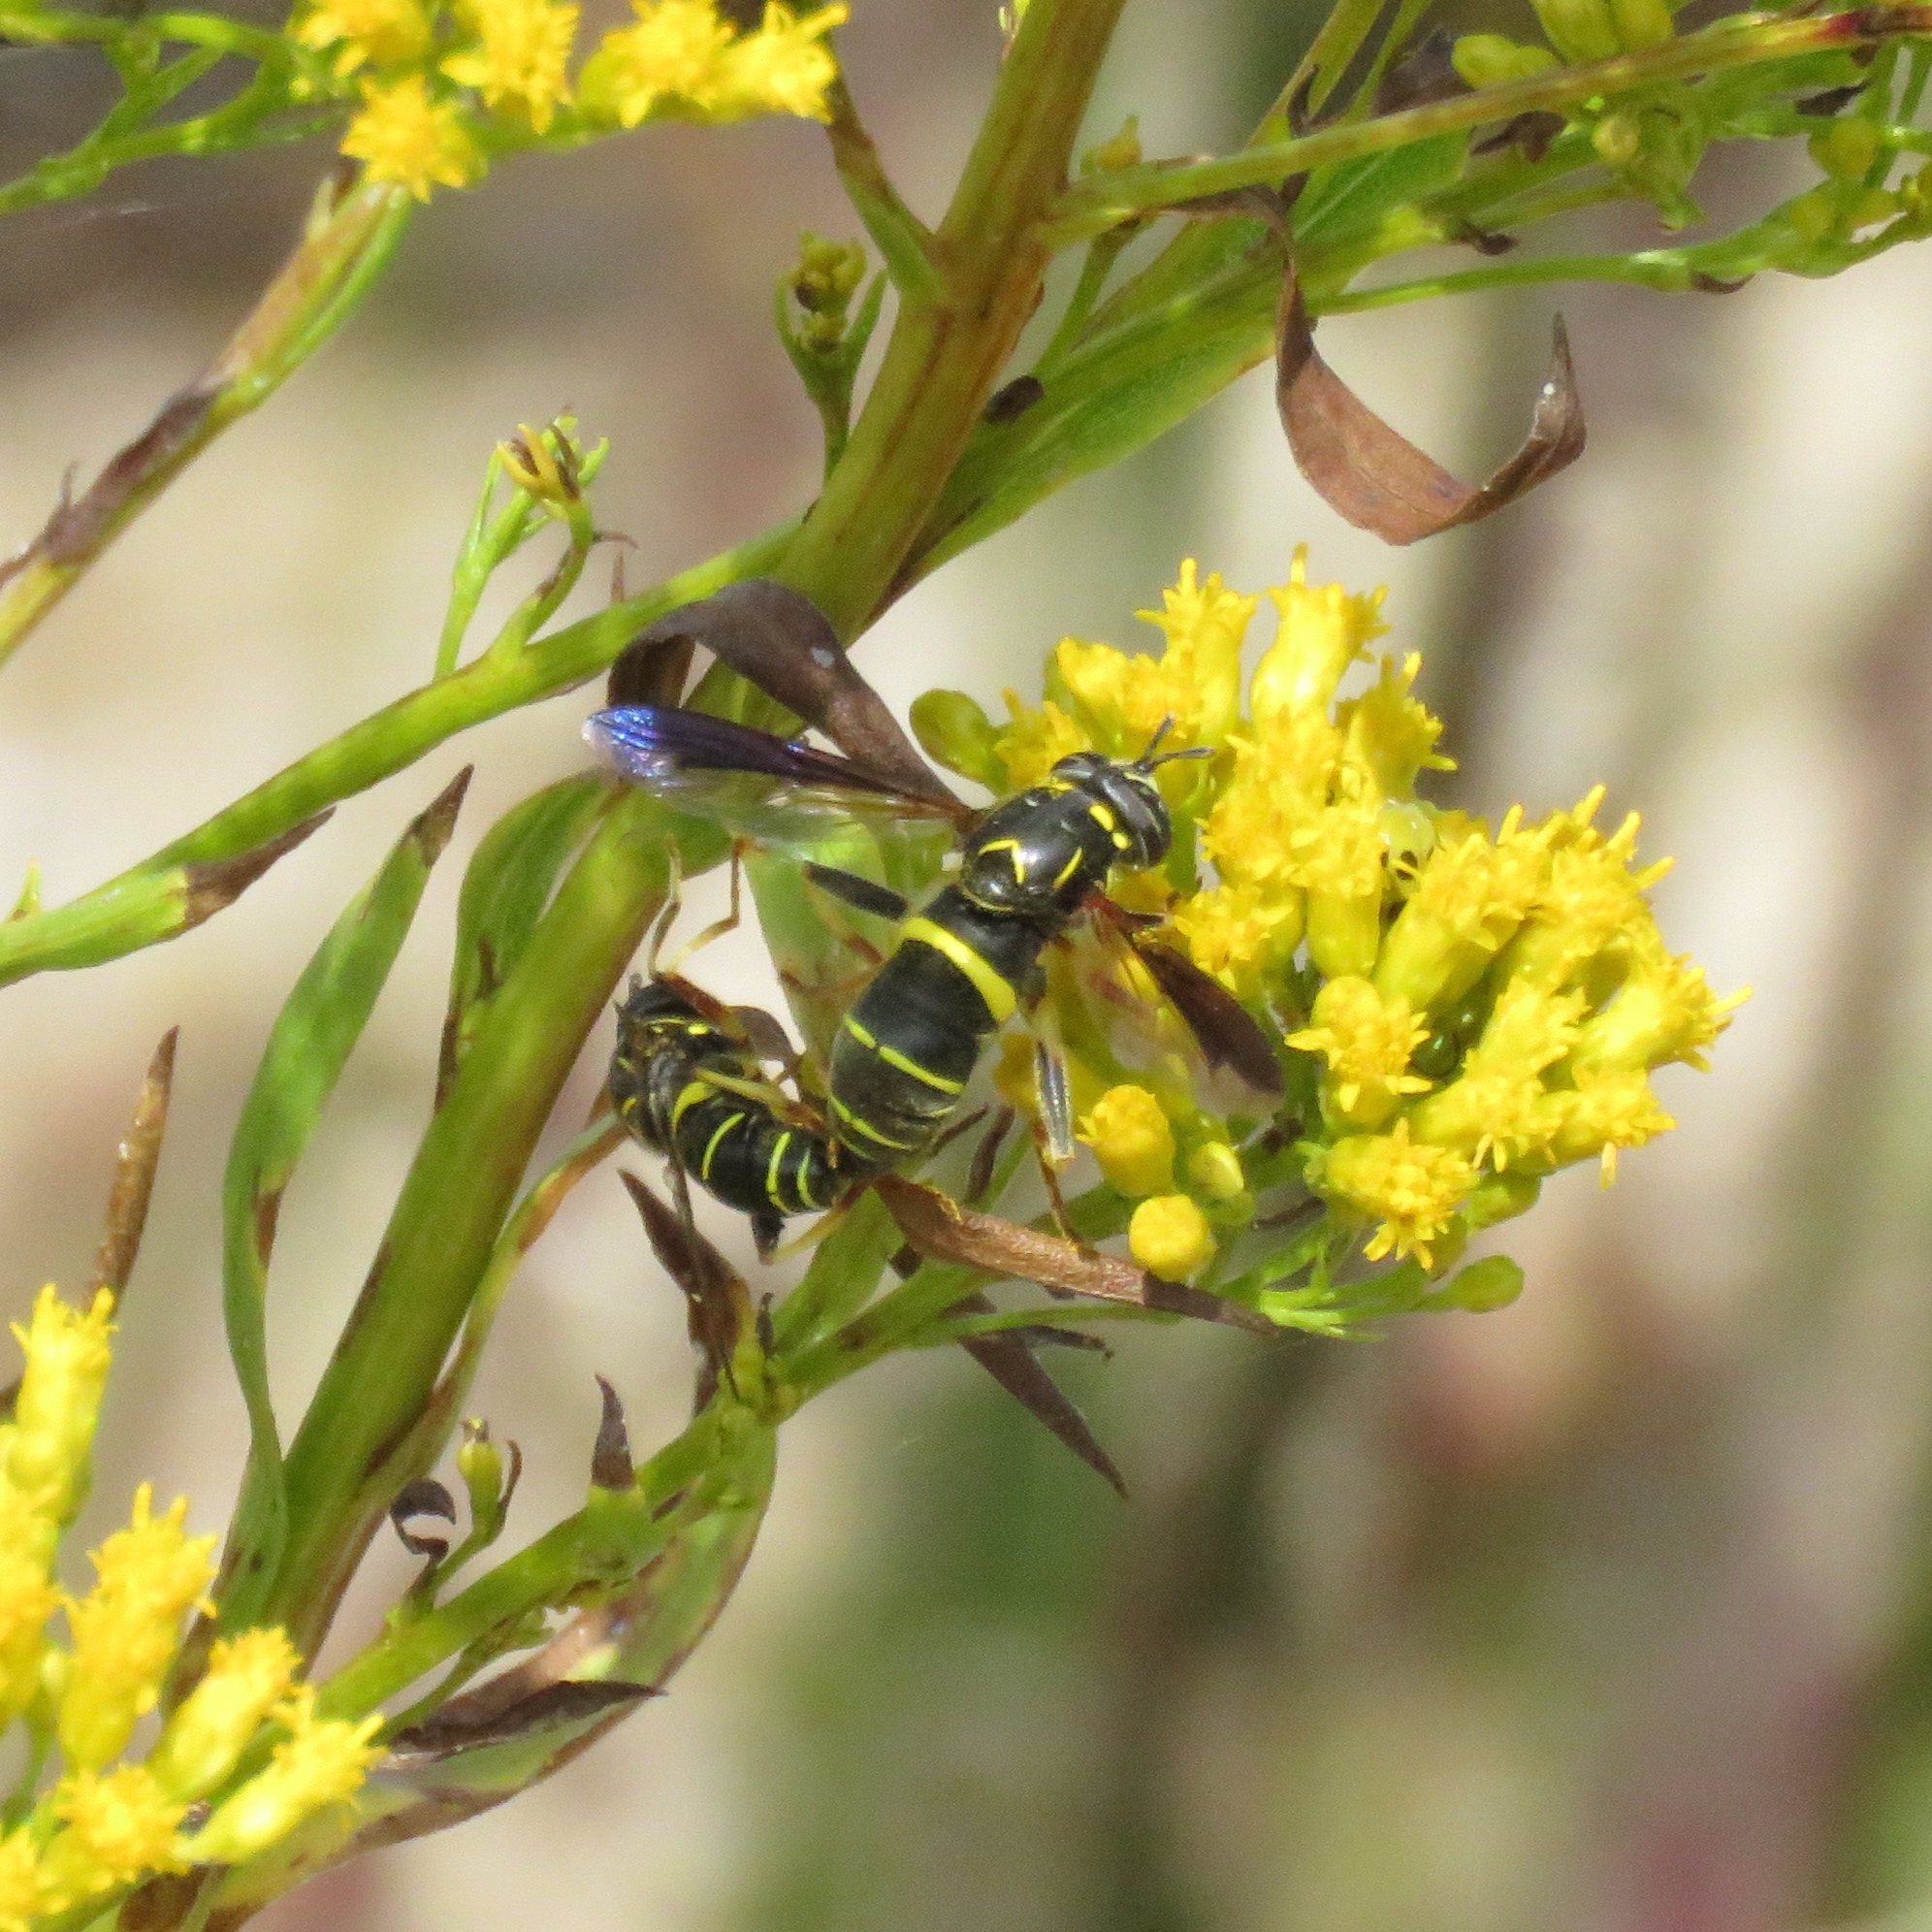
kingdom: Animalia
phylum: Arthropoda
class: Insecta
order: Diptera
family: Syrphidae
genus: Spilomyia
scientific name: Spilomyia sayi
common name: Four-lined hornet fly
